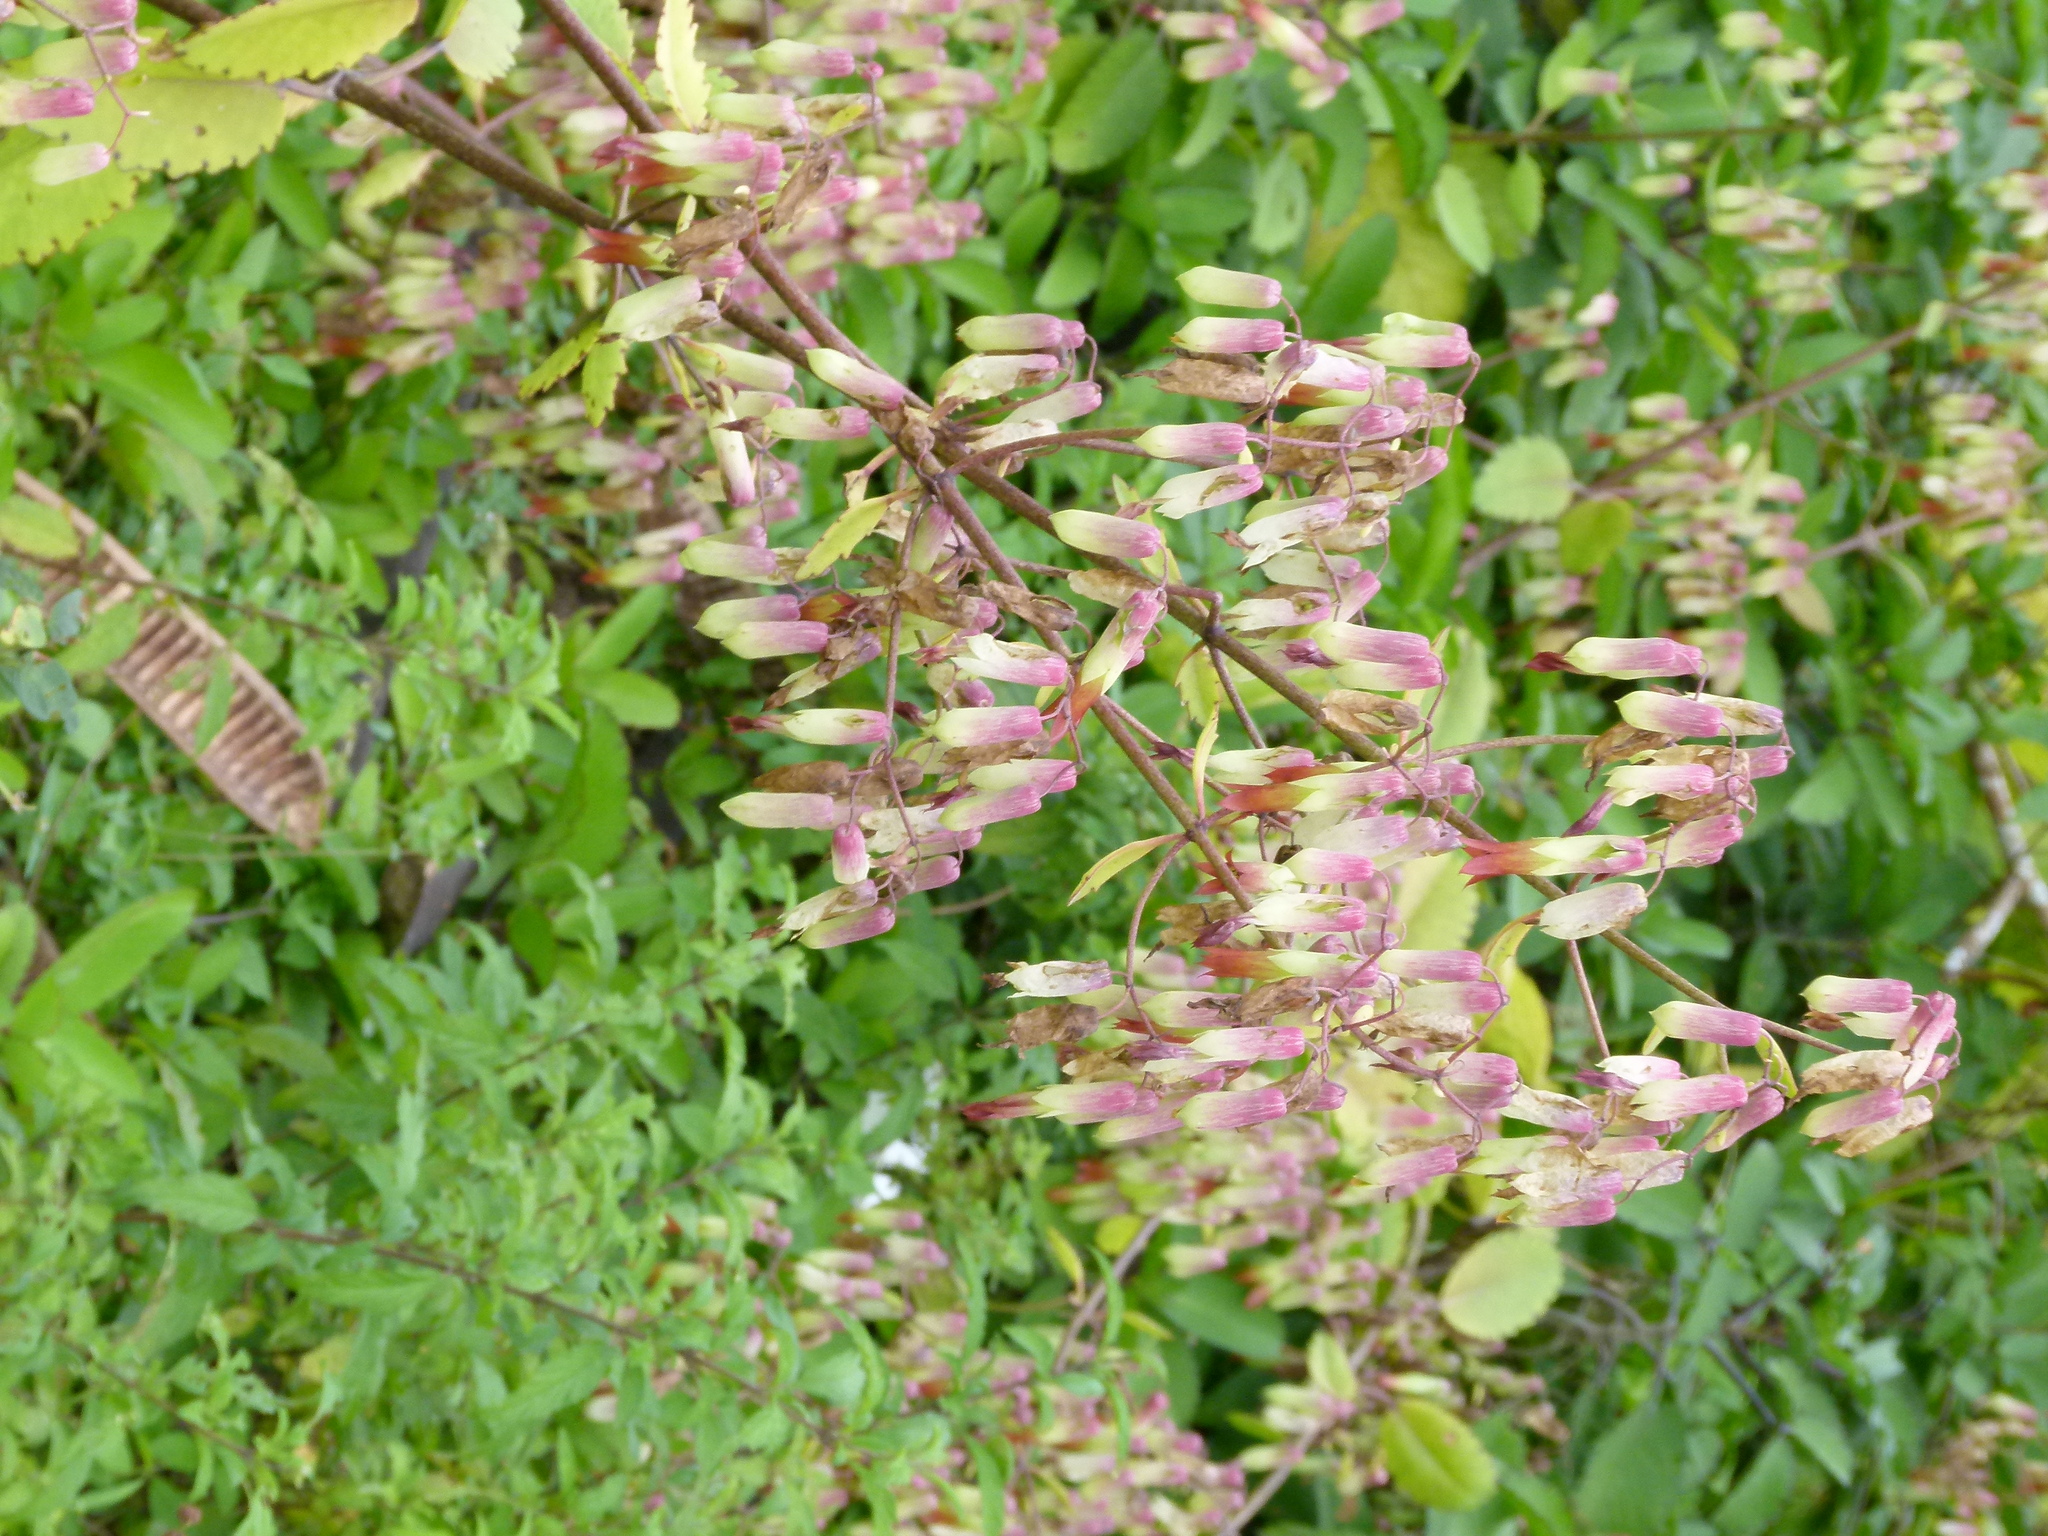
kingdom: Plantae
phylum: Tracheophyta
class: Magnoliopsida
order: Saxifragales
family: Crassulaceae
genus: Kalanchoe
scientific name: Kalanchoe pinnata
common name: Cathedral bells
